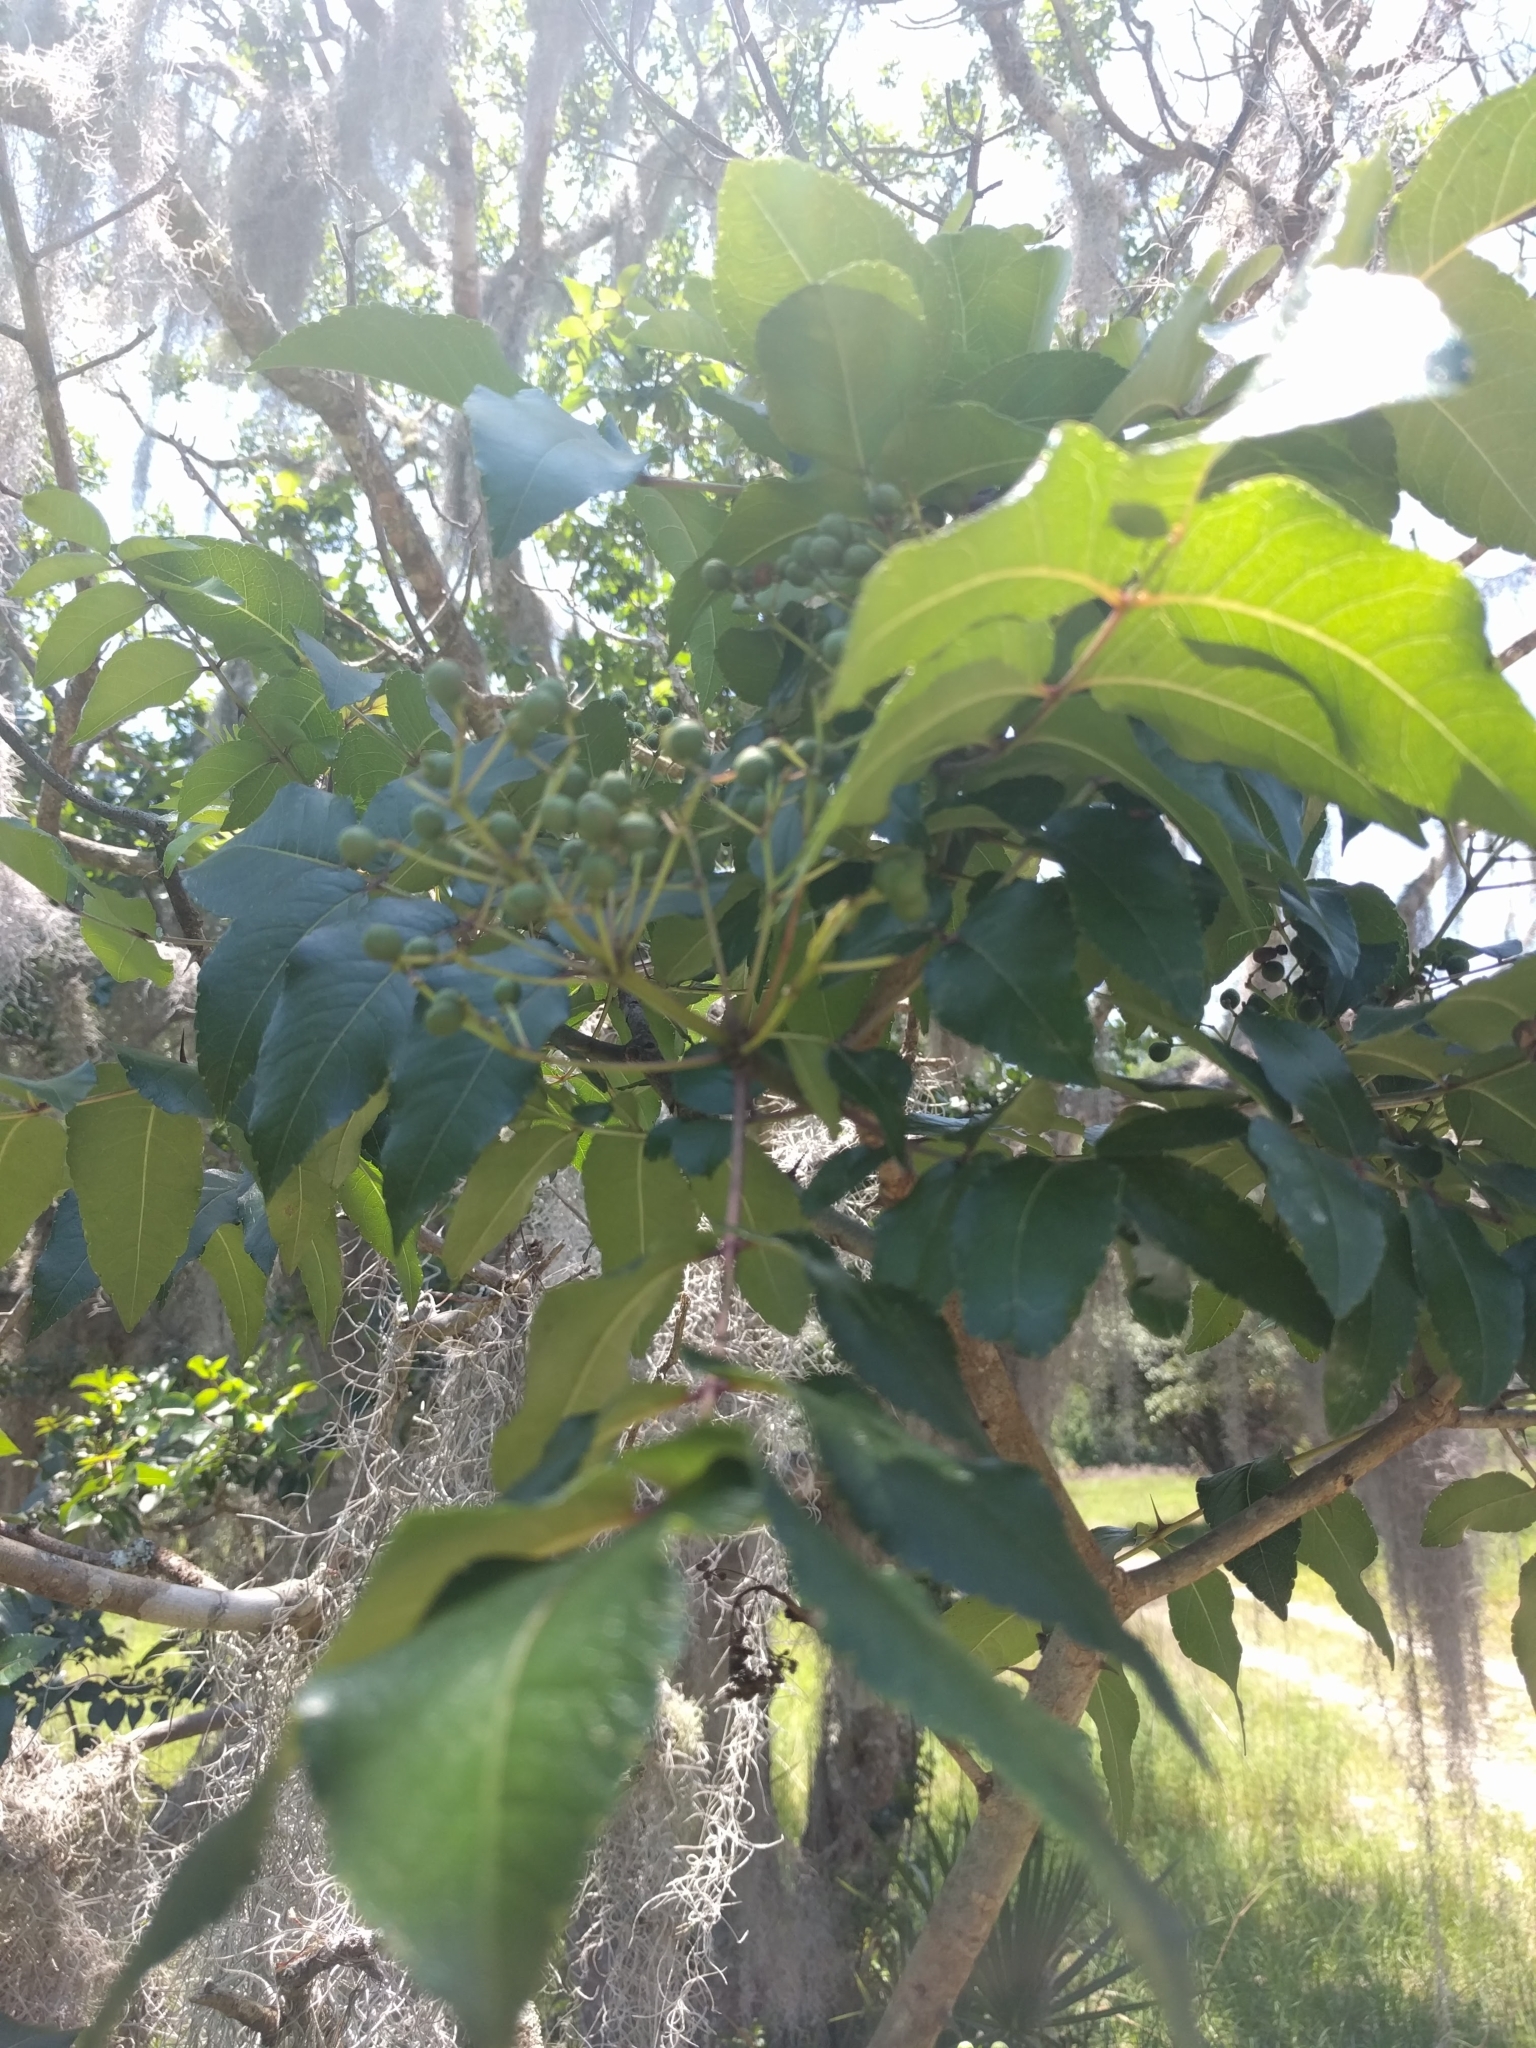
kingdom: Plantae
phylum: Tracheophyta
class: Magnoliopsida
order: Sapindales
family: Rutaceae
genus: Zanthoxylum
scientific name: Zanthoxylum clava-herculis
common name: Hercules'-club
